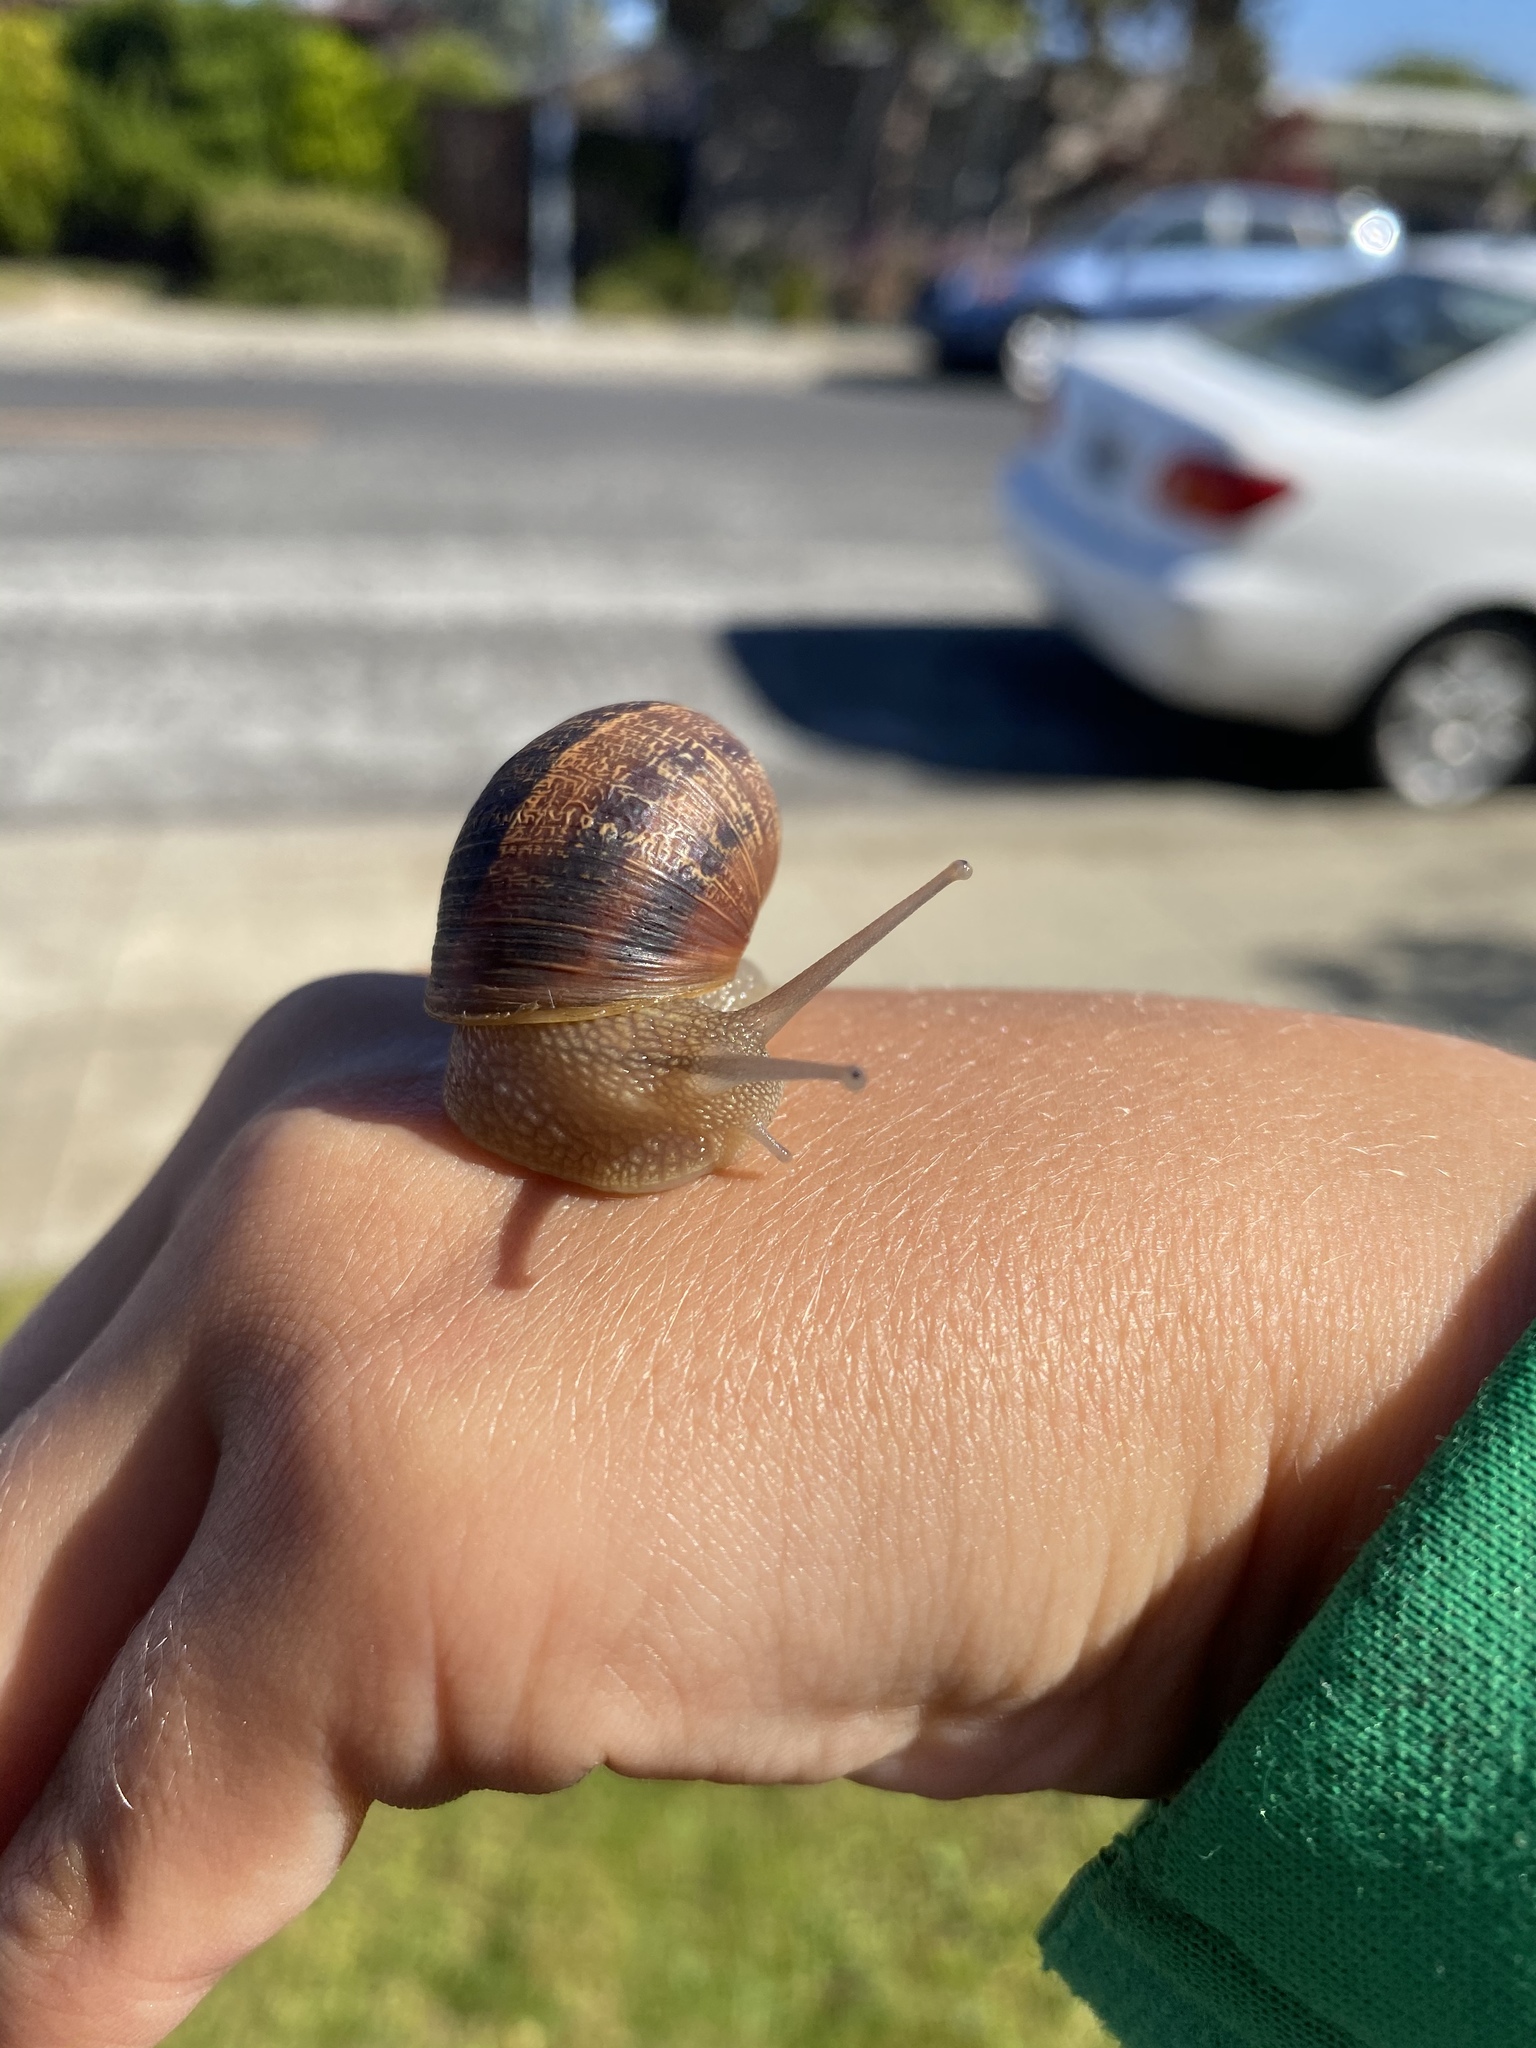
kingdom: Animalia
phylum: Mollusca
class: Gastropoda
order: Stylommatophora
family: Helicidae
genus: Cornu
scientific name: Cornu aspersum
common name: Brown garden snail
